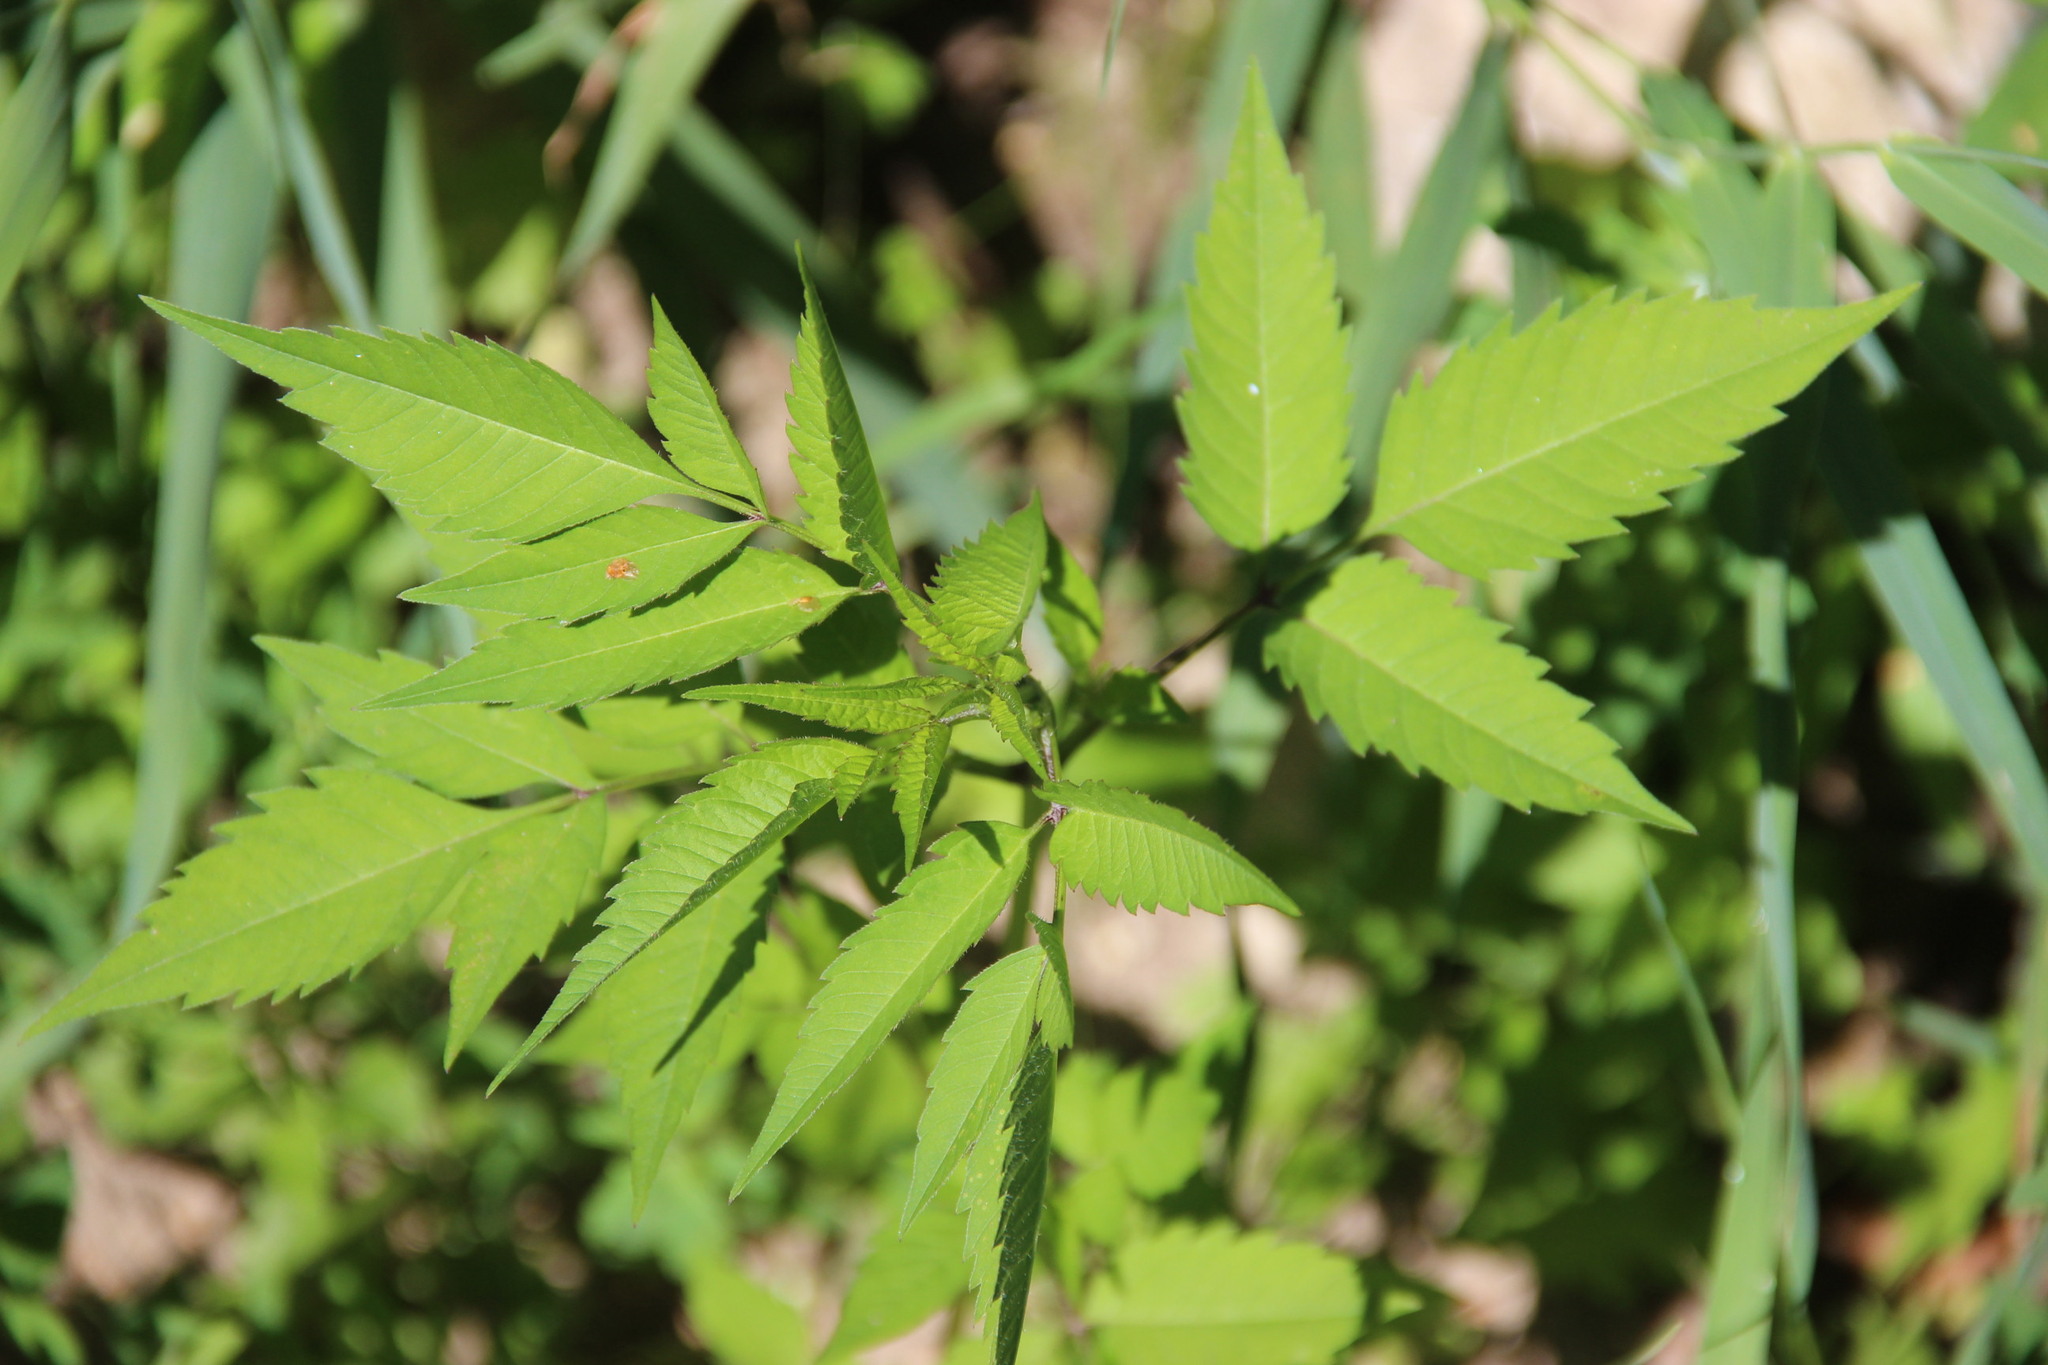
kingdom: Plantae
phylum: Tracheophyta
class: Magnoliopsida
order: Asterales
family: Asteraceae
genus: Bidens
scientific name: Bidens frondosa
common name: Beggarticks
